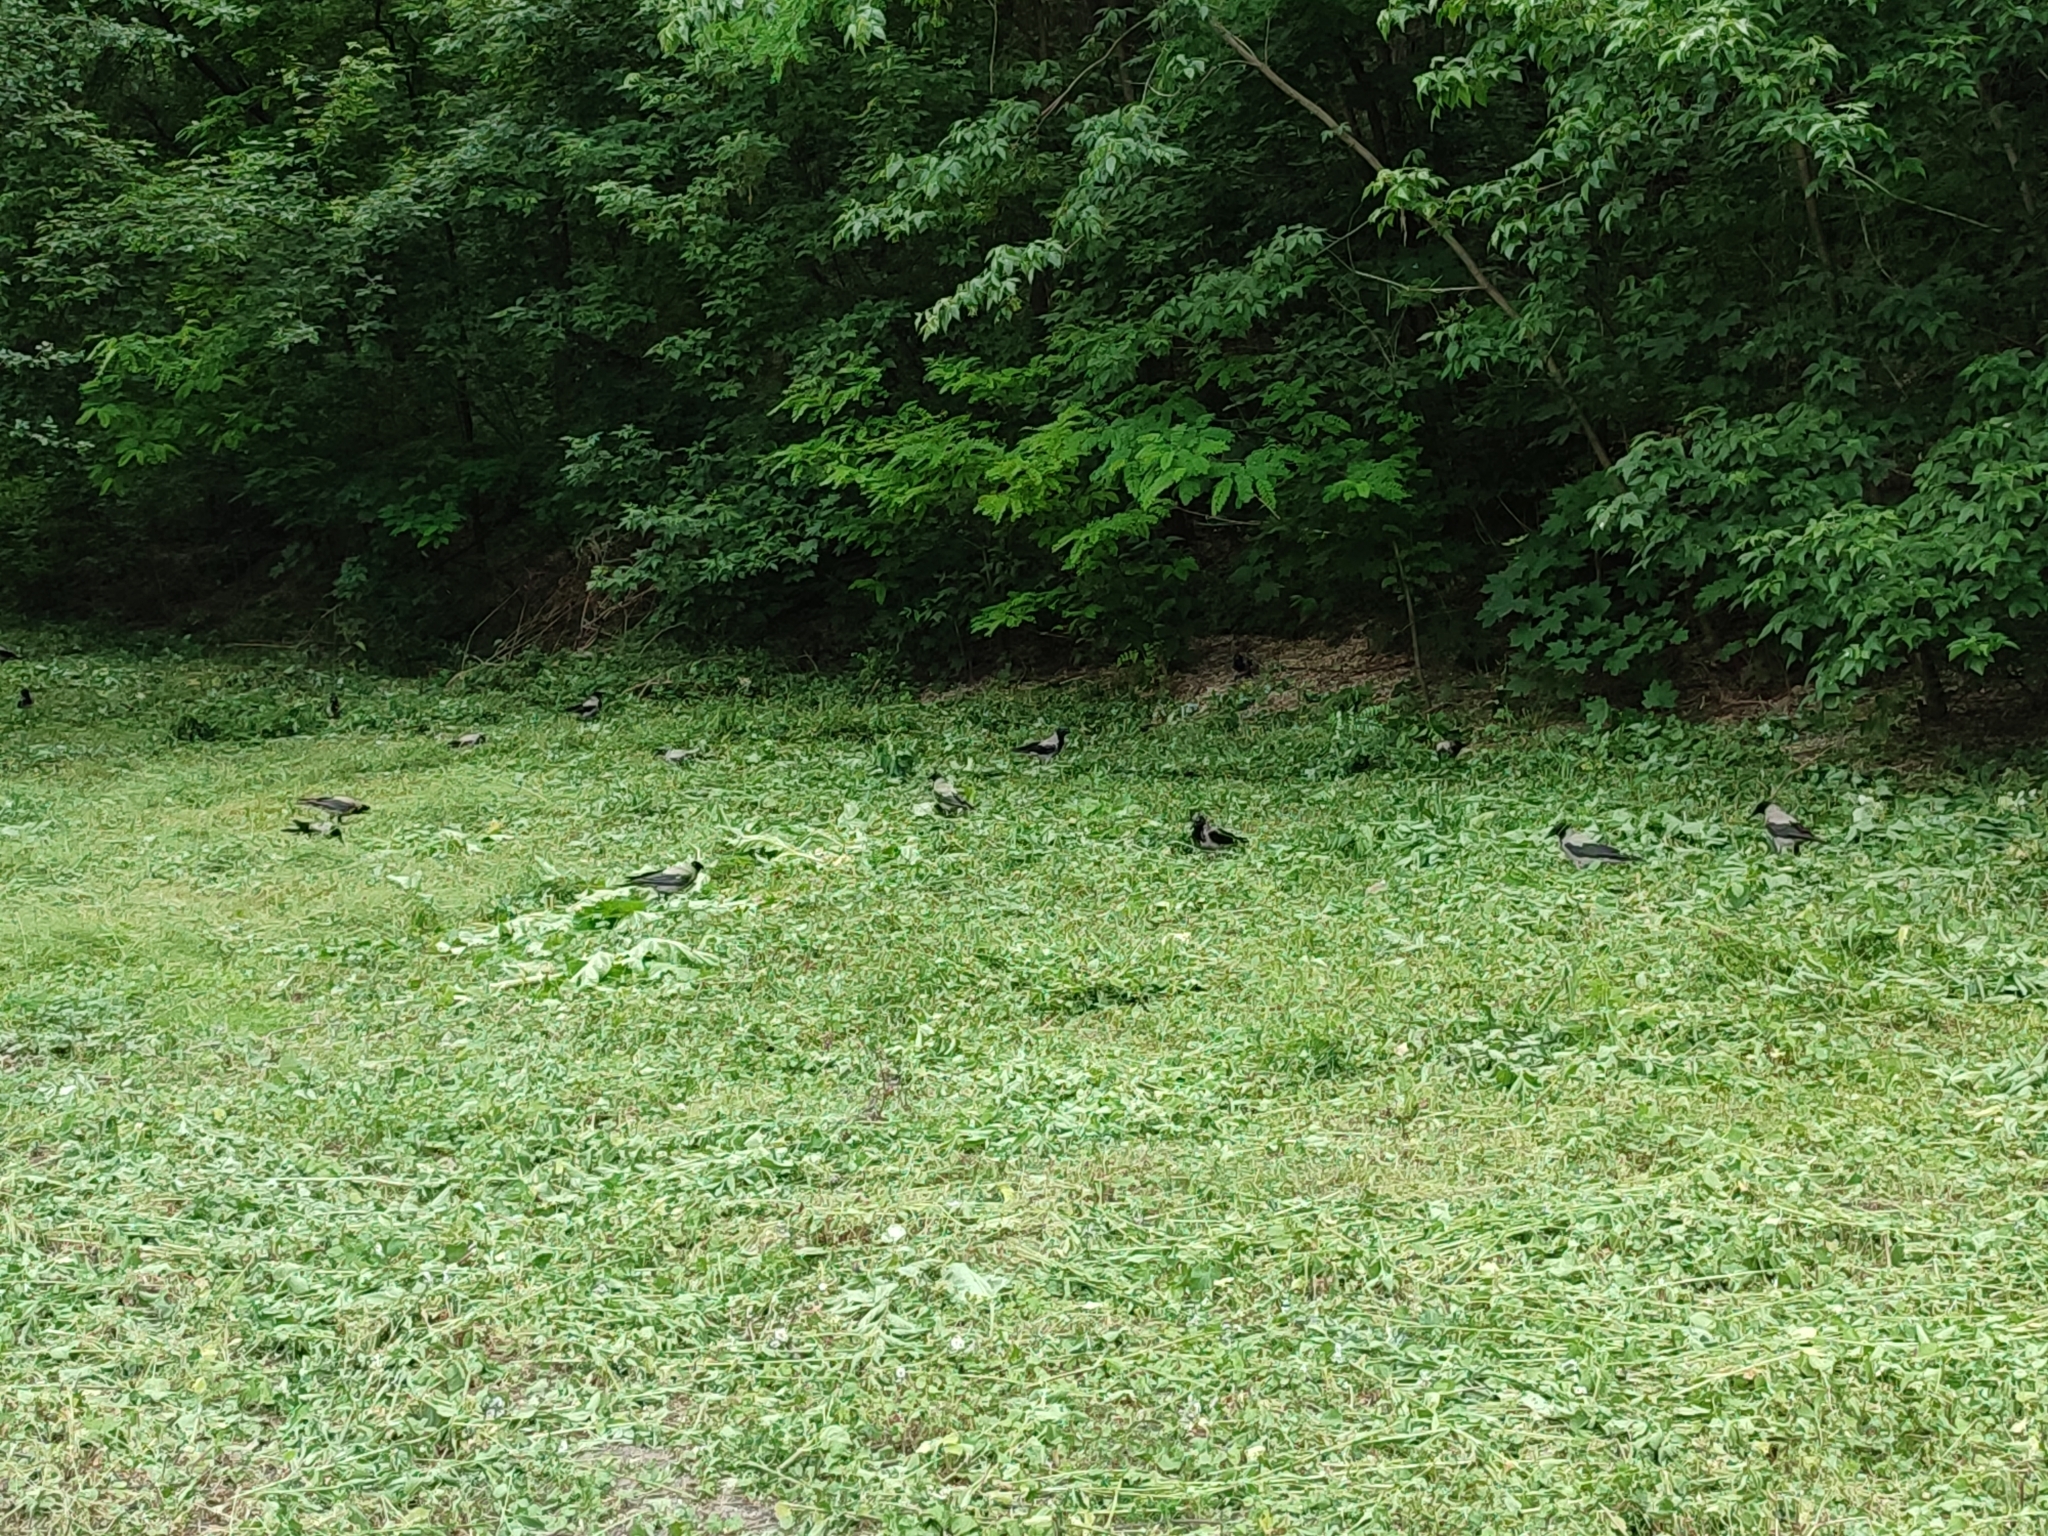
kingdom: Animalia
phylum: Chordata
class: Aves
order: Passeriformes
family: Corvidae
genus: Corvus
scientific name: Corvus cornix
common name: Hooded crow
